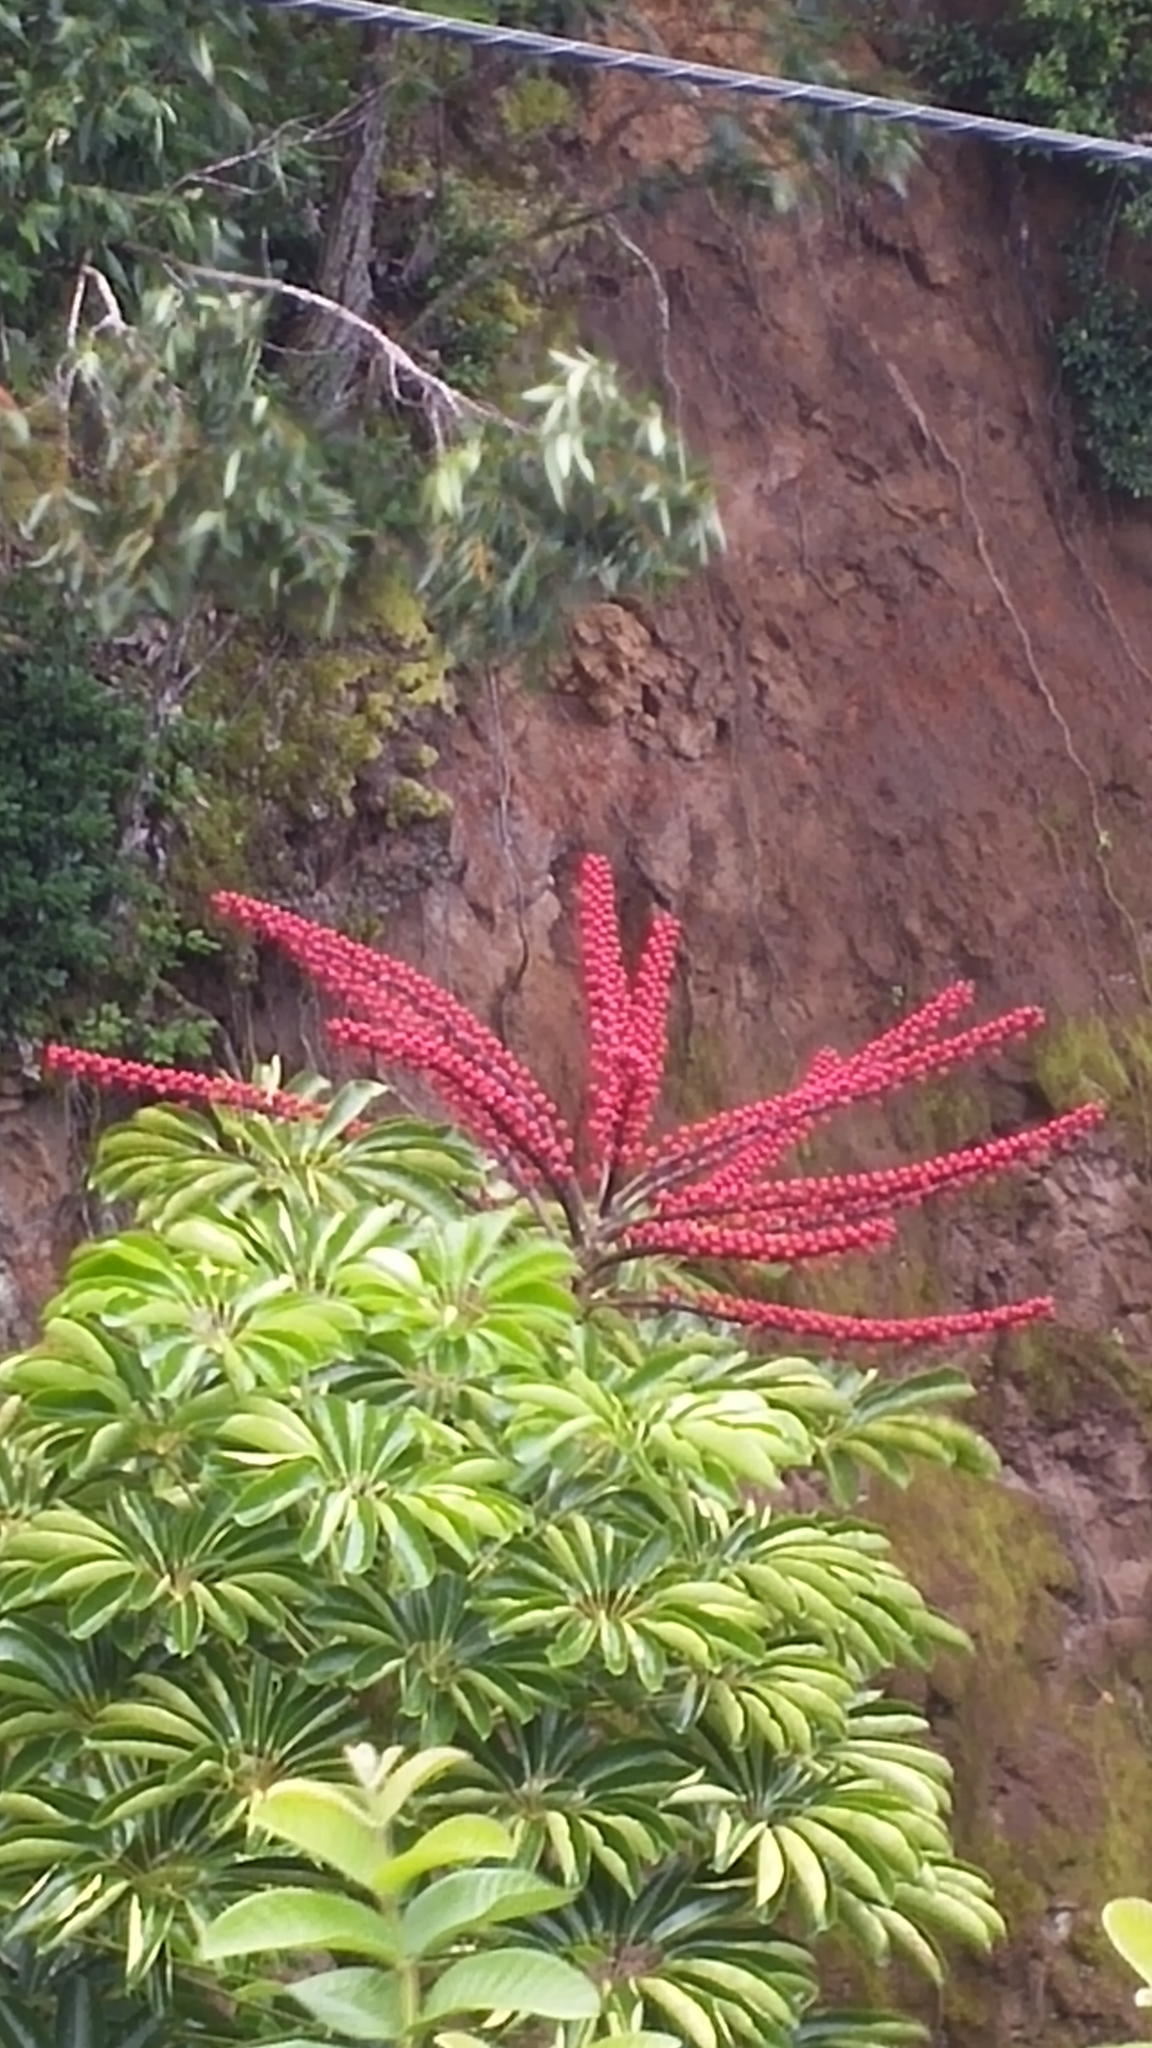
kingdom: Plantae
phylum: Tracheophyta
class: Magnoliopsida
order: Apiales
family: Araliaceae
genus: Heptapleurum
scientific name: Heptapleurum actinophyllum
